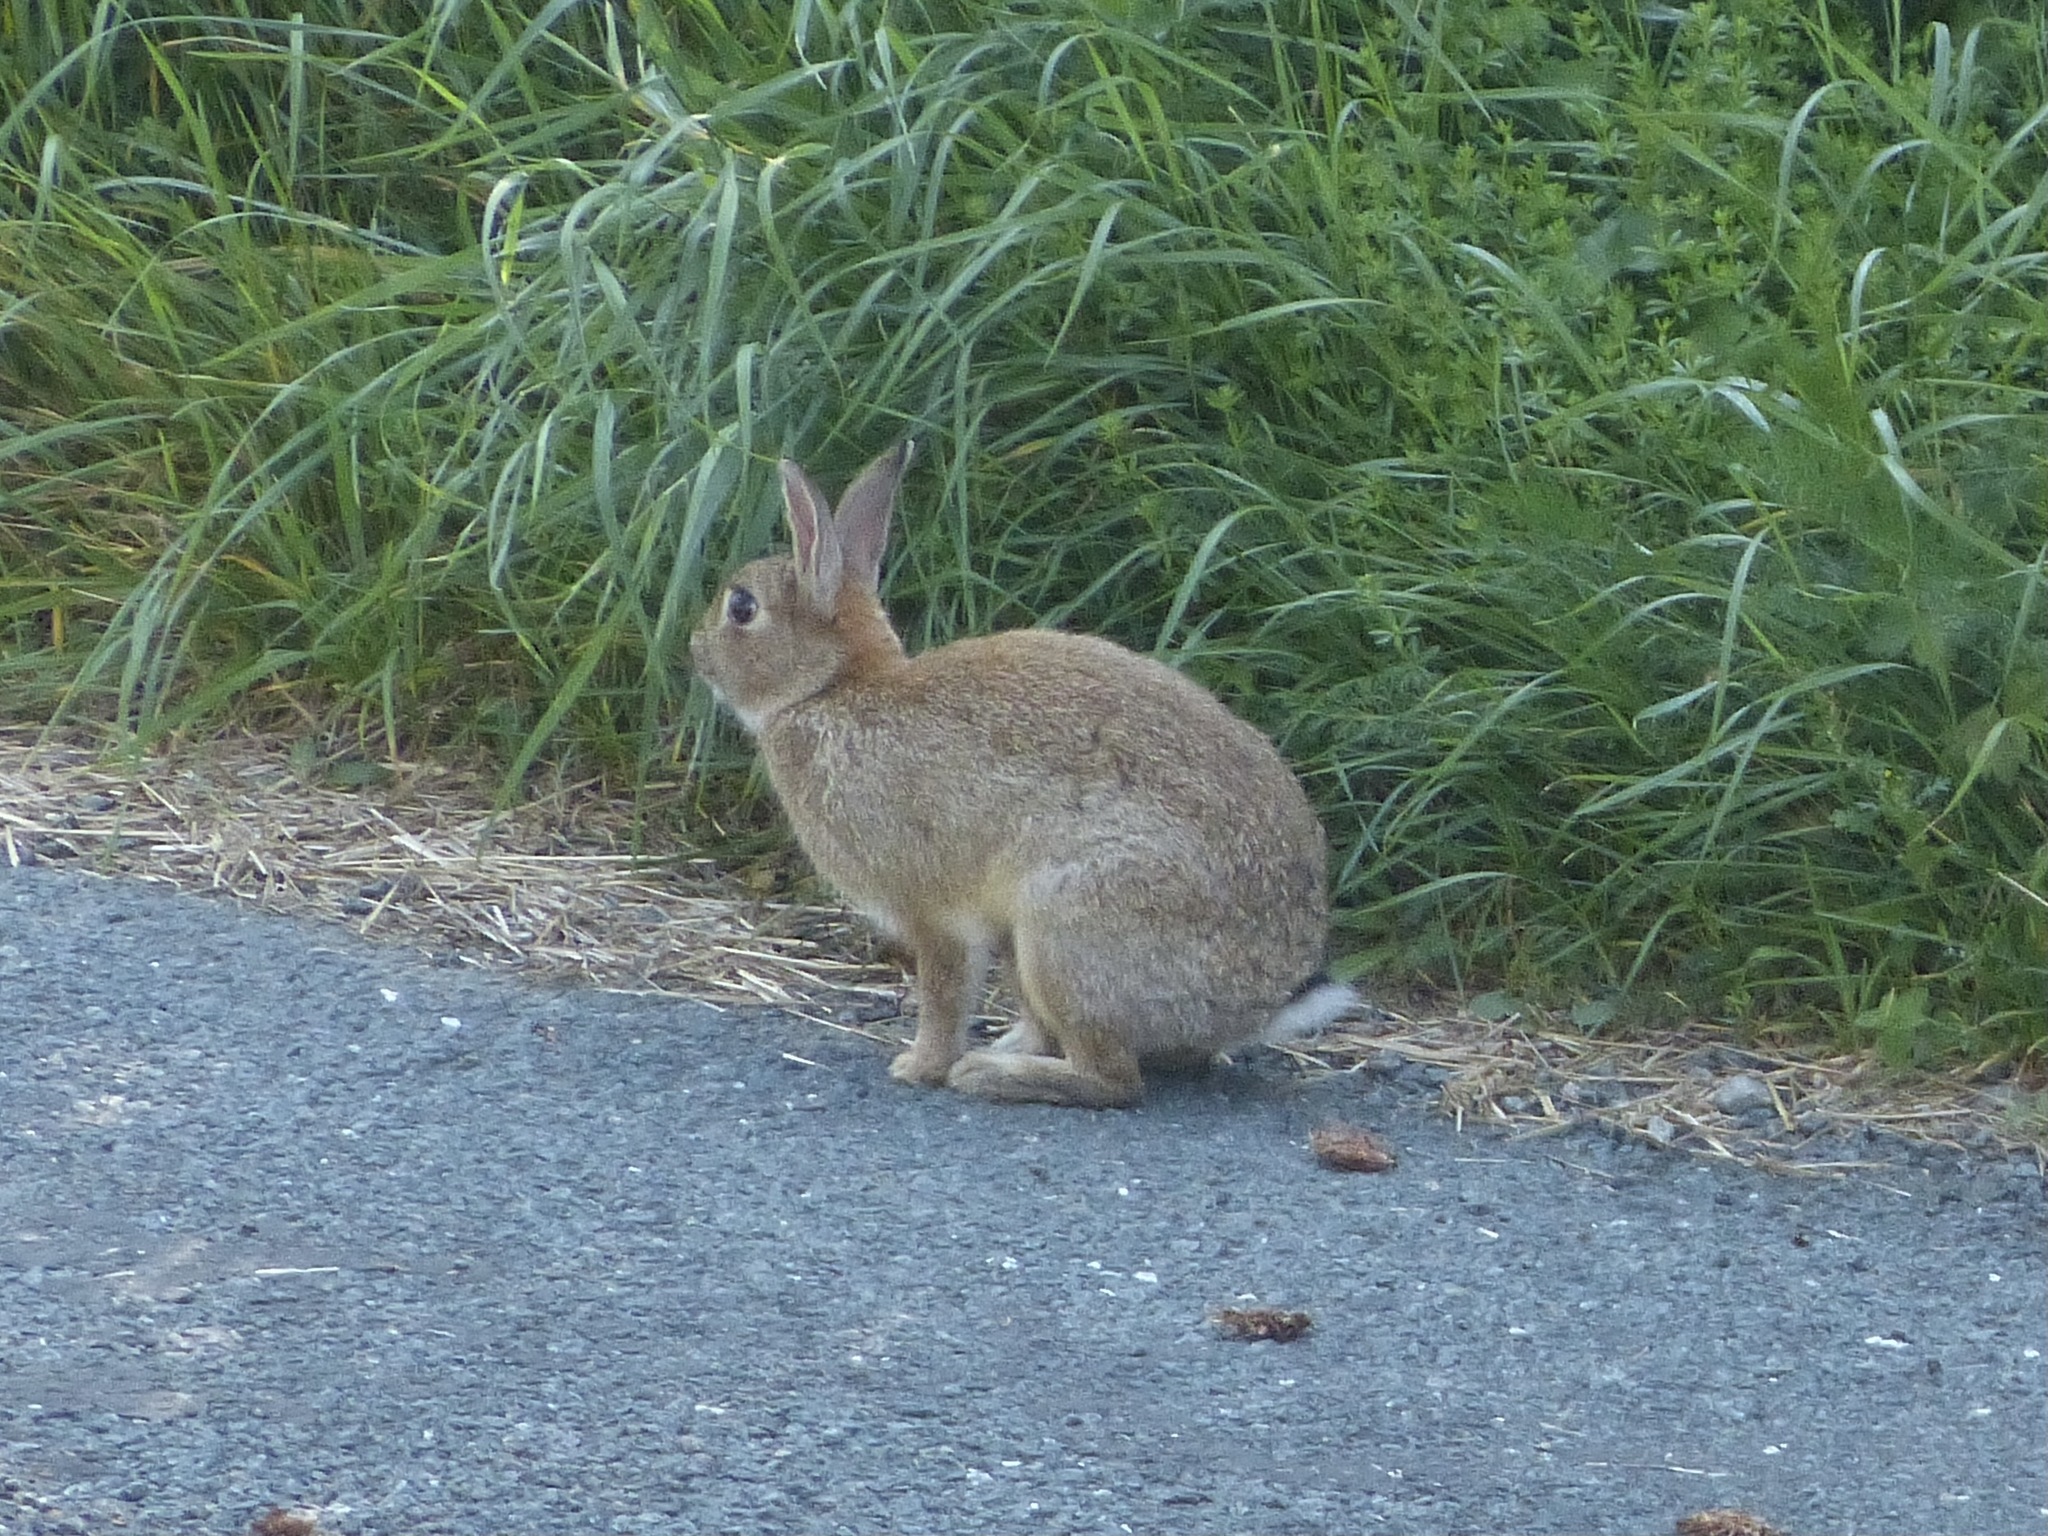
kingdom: Animalia
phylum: Chordata
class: Mammalia
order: Lagomorpha
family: Leporidae
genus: Oryctolagus
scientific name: Oryctolagus cuniculus
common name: European rabbit
